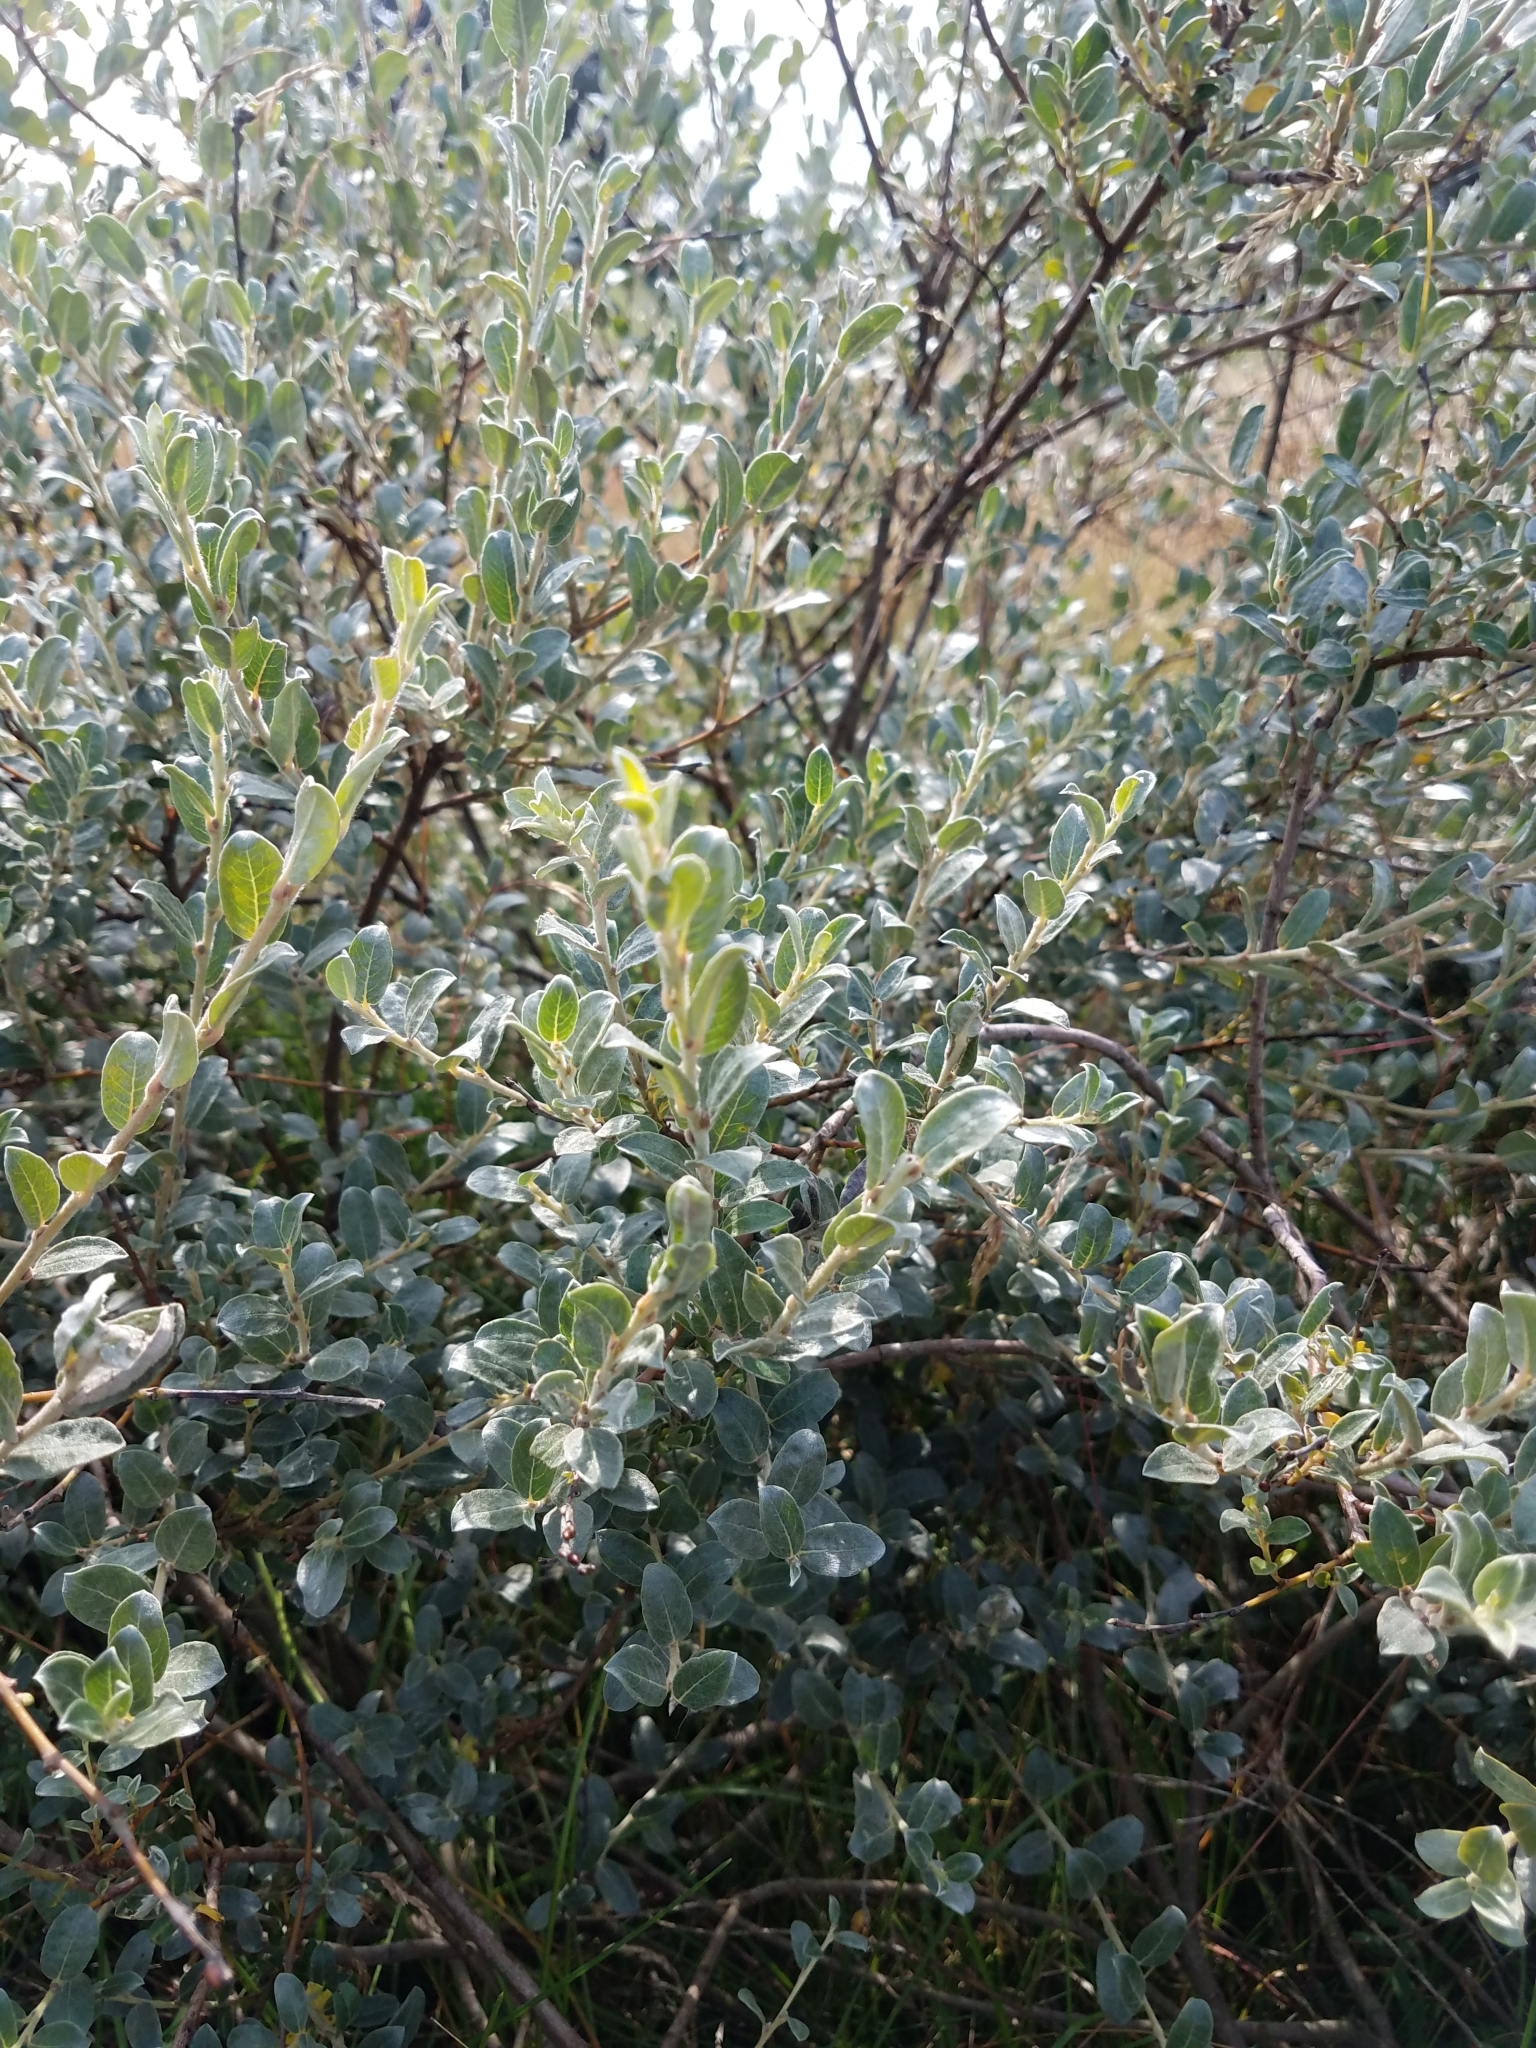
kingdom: Plantae
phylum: Tracheophyta
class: Magnoliopsida
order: Malpighiales
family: Salicaceae
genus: Salix
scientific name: Salix repens
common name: Creeping willow
